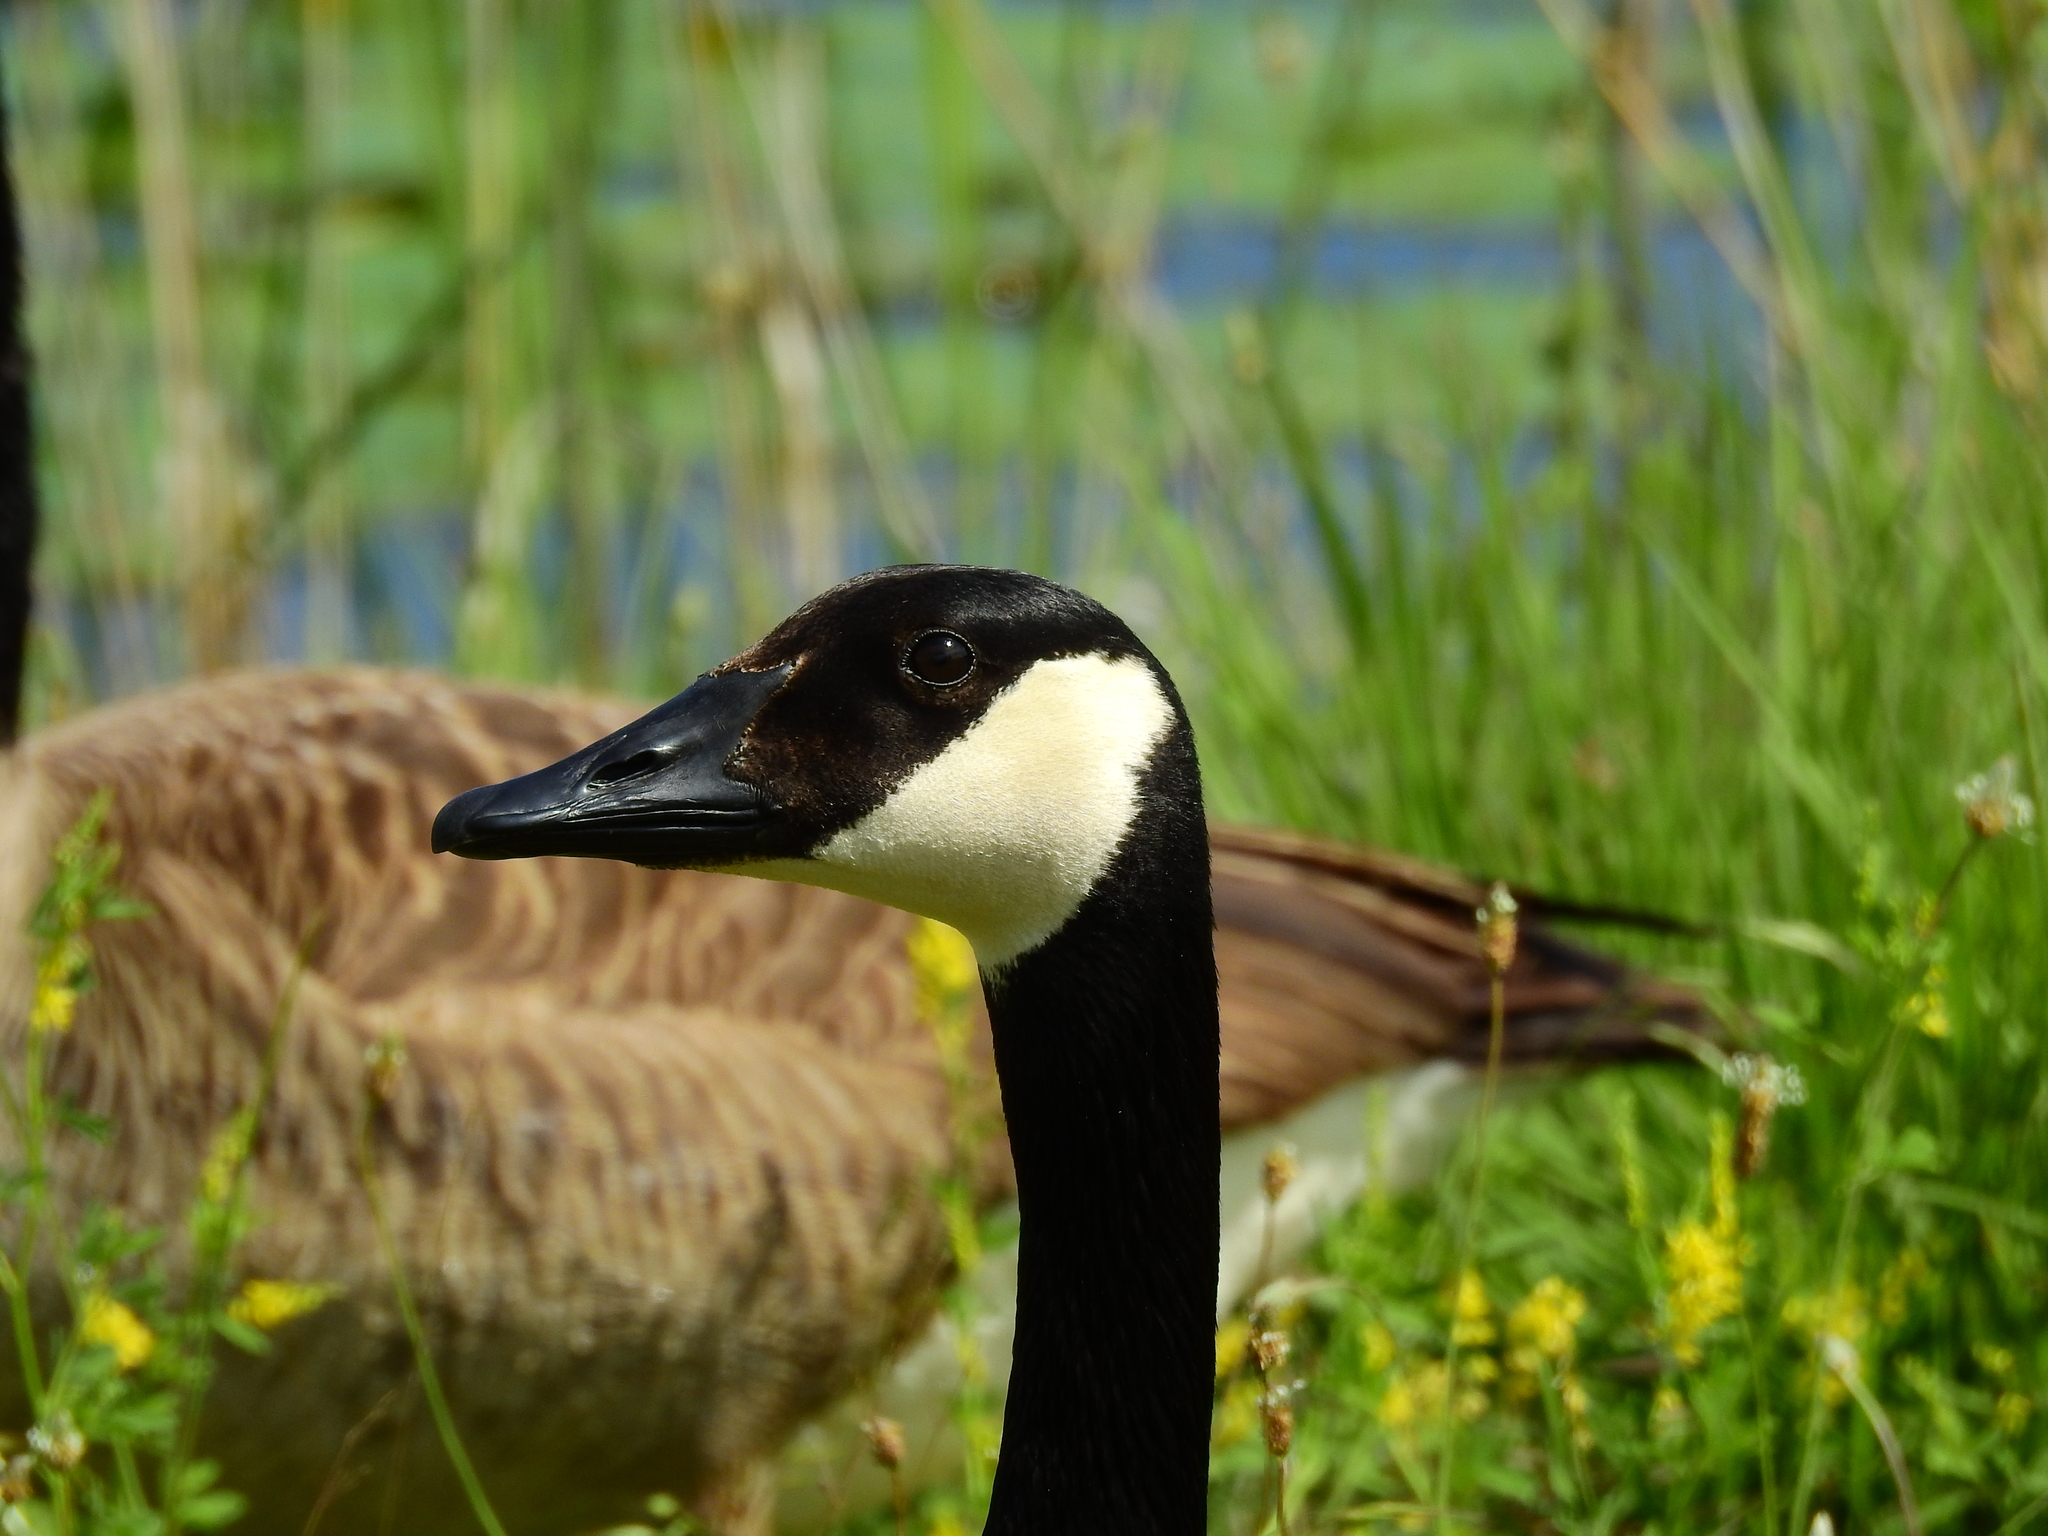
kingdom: Animalia
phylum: Chordata
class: Aves
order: Anseriformes
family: Anatidae
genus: Branta
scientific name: Branta canadensis
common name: Canada goose
